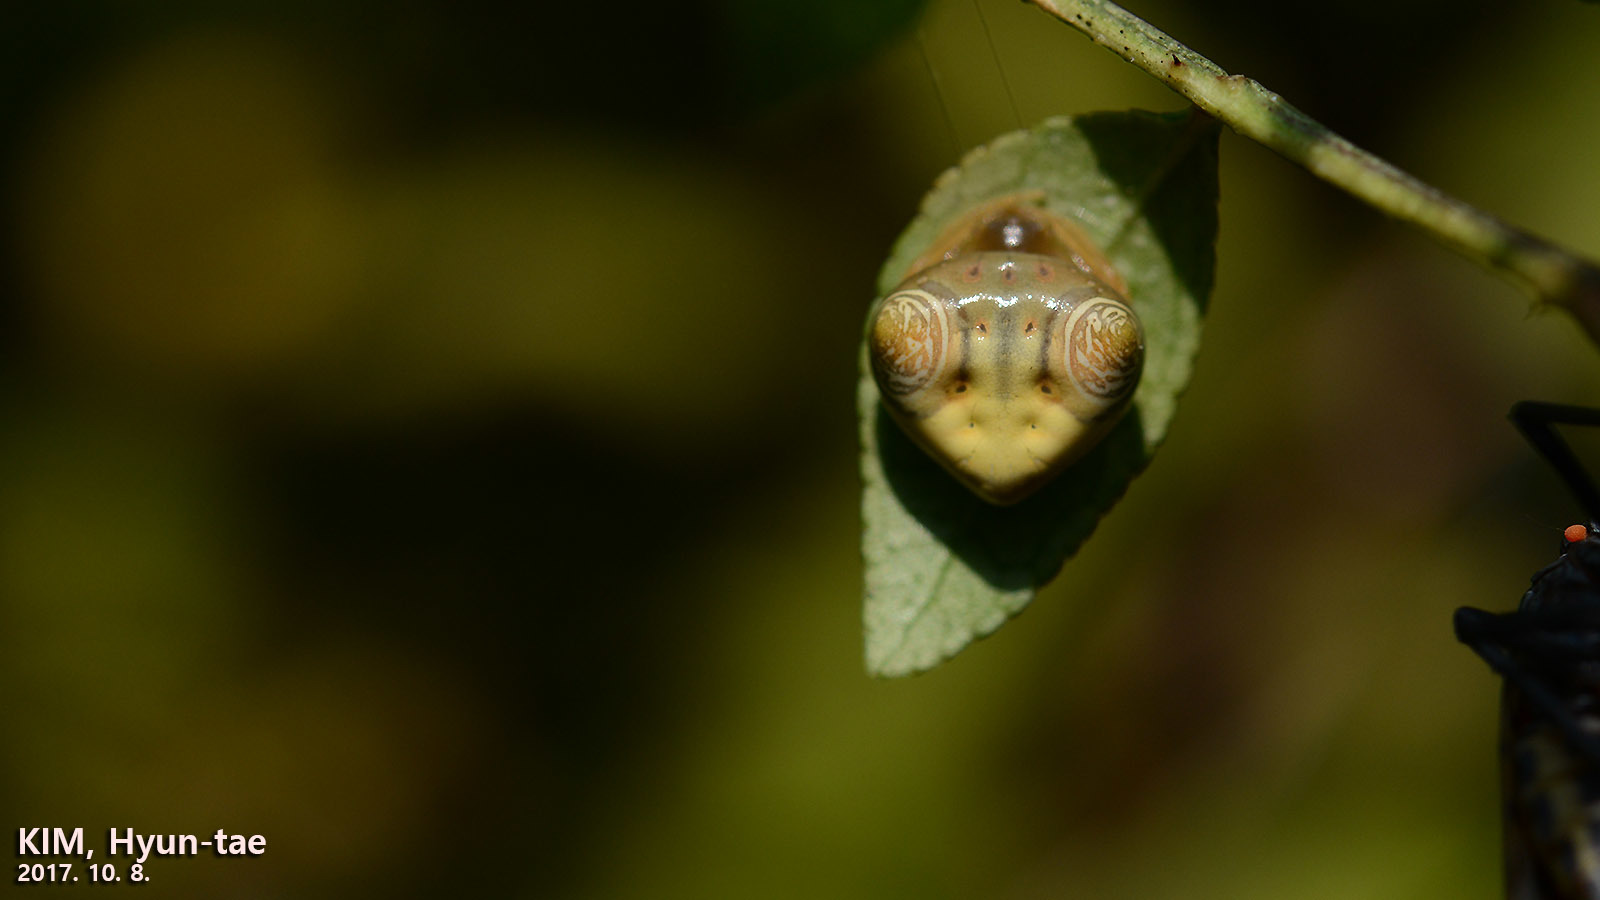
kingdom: Animalia
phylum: Arthropoda
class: Arachnida
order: Araneae
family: Araneidae
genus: Cyrtarachne
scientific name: Cyrtarachne inaequalis
